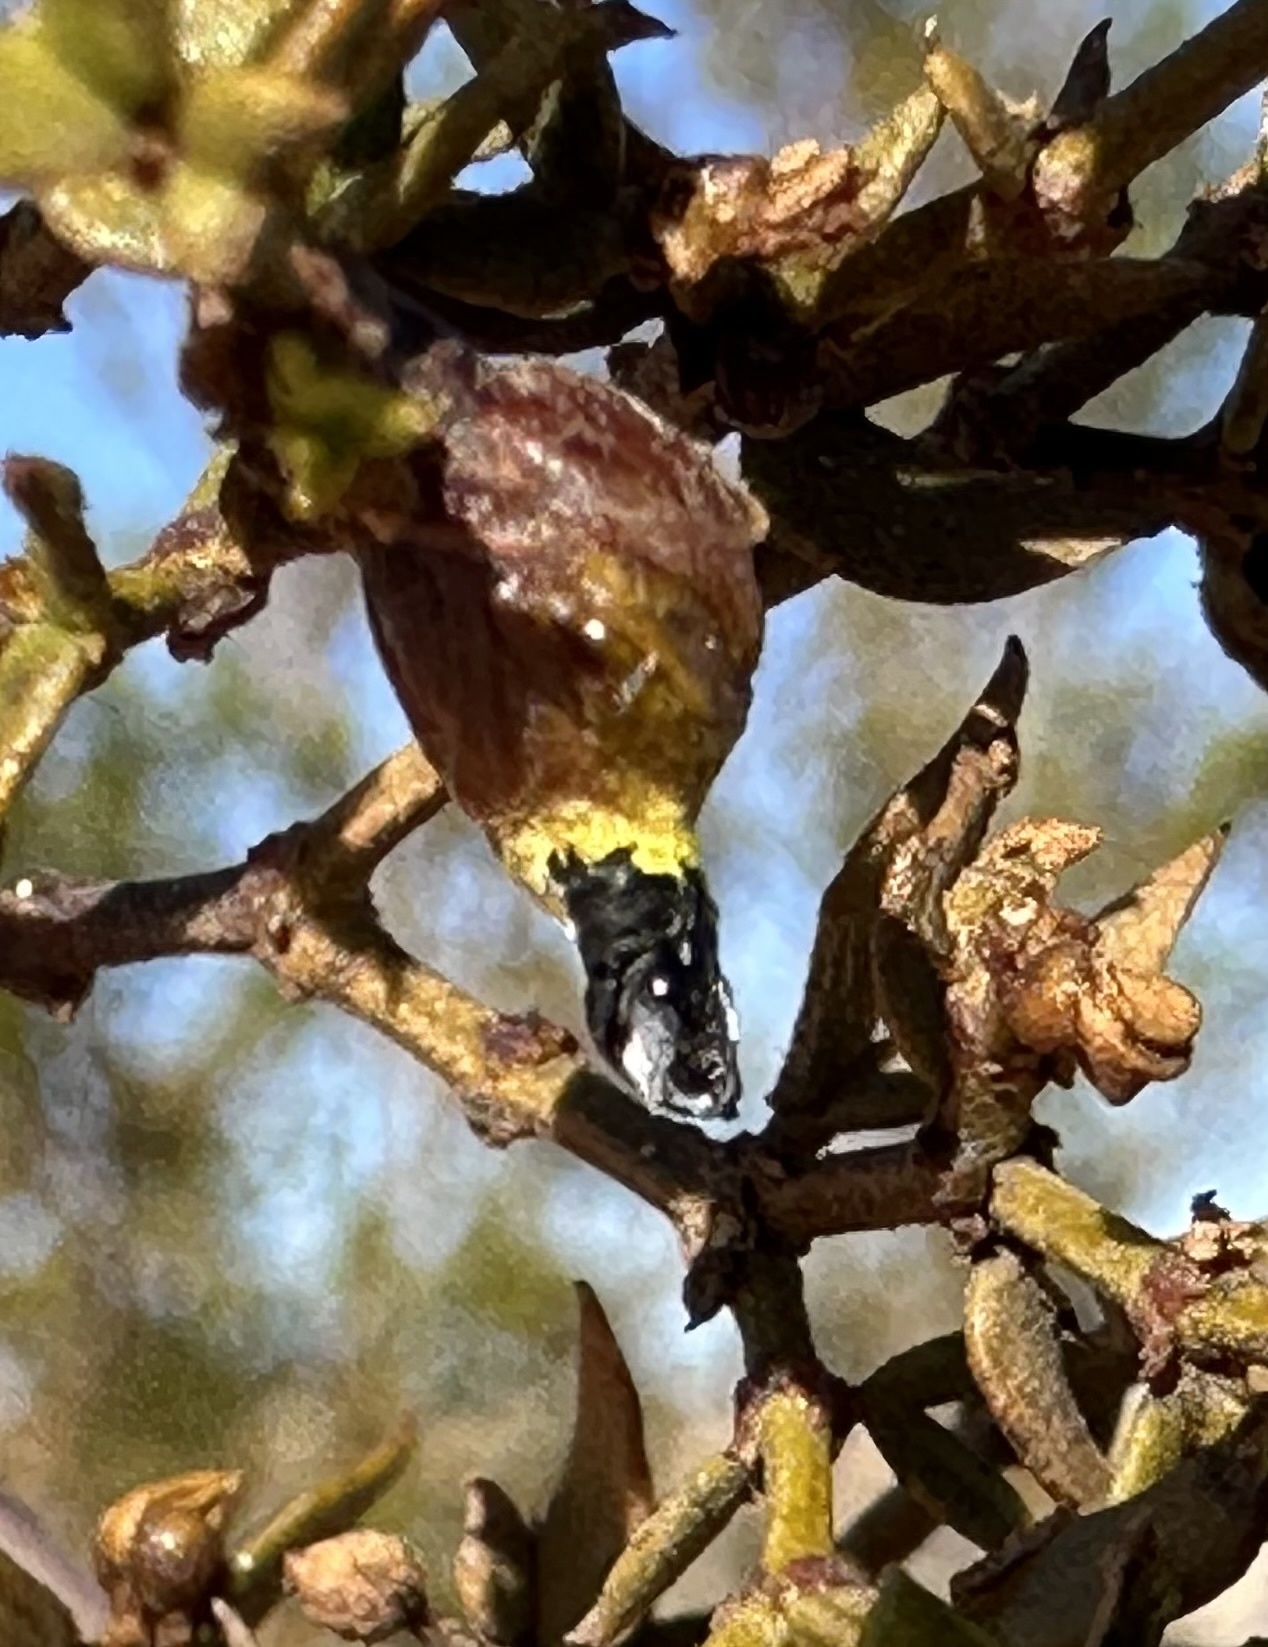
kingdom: Animalia
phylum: Arthropoda
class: Insecta
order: Diptera
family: Cecidomyiidae
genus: Asphondylia
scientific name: Asphondylia resinosa
